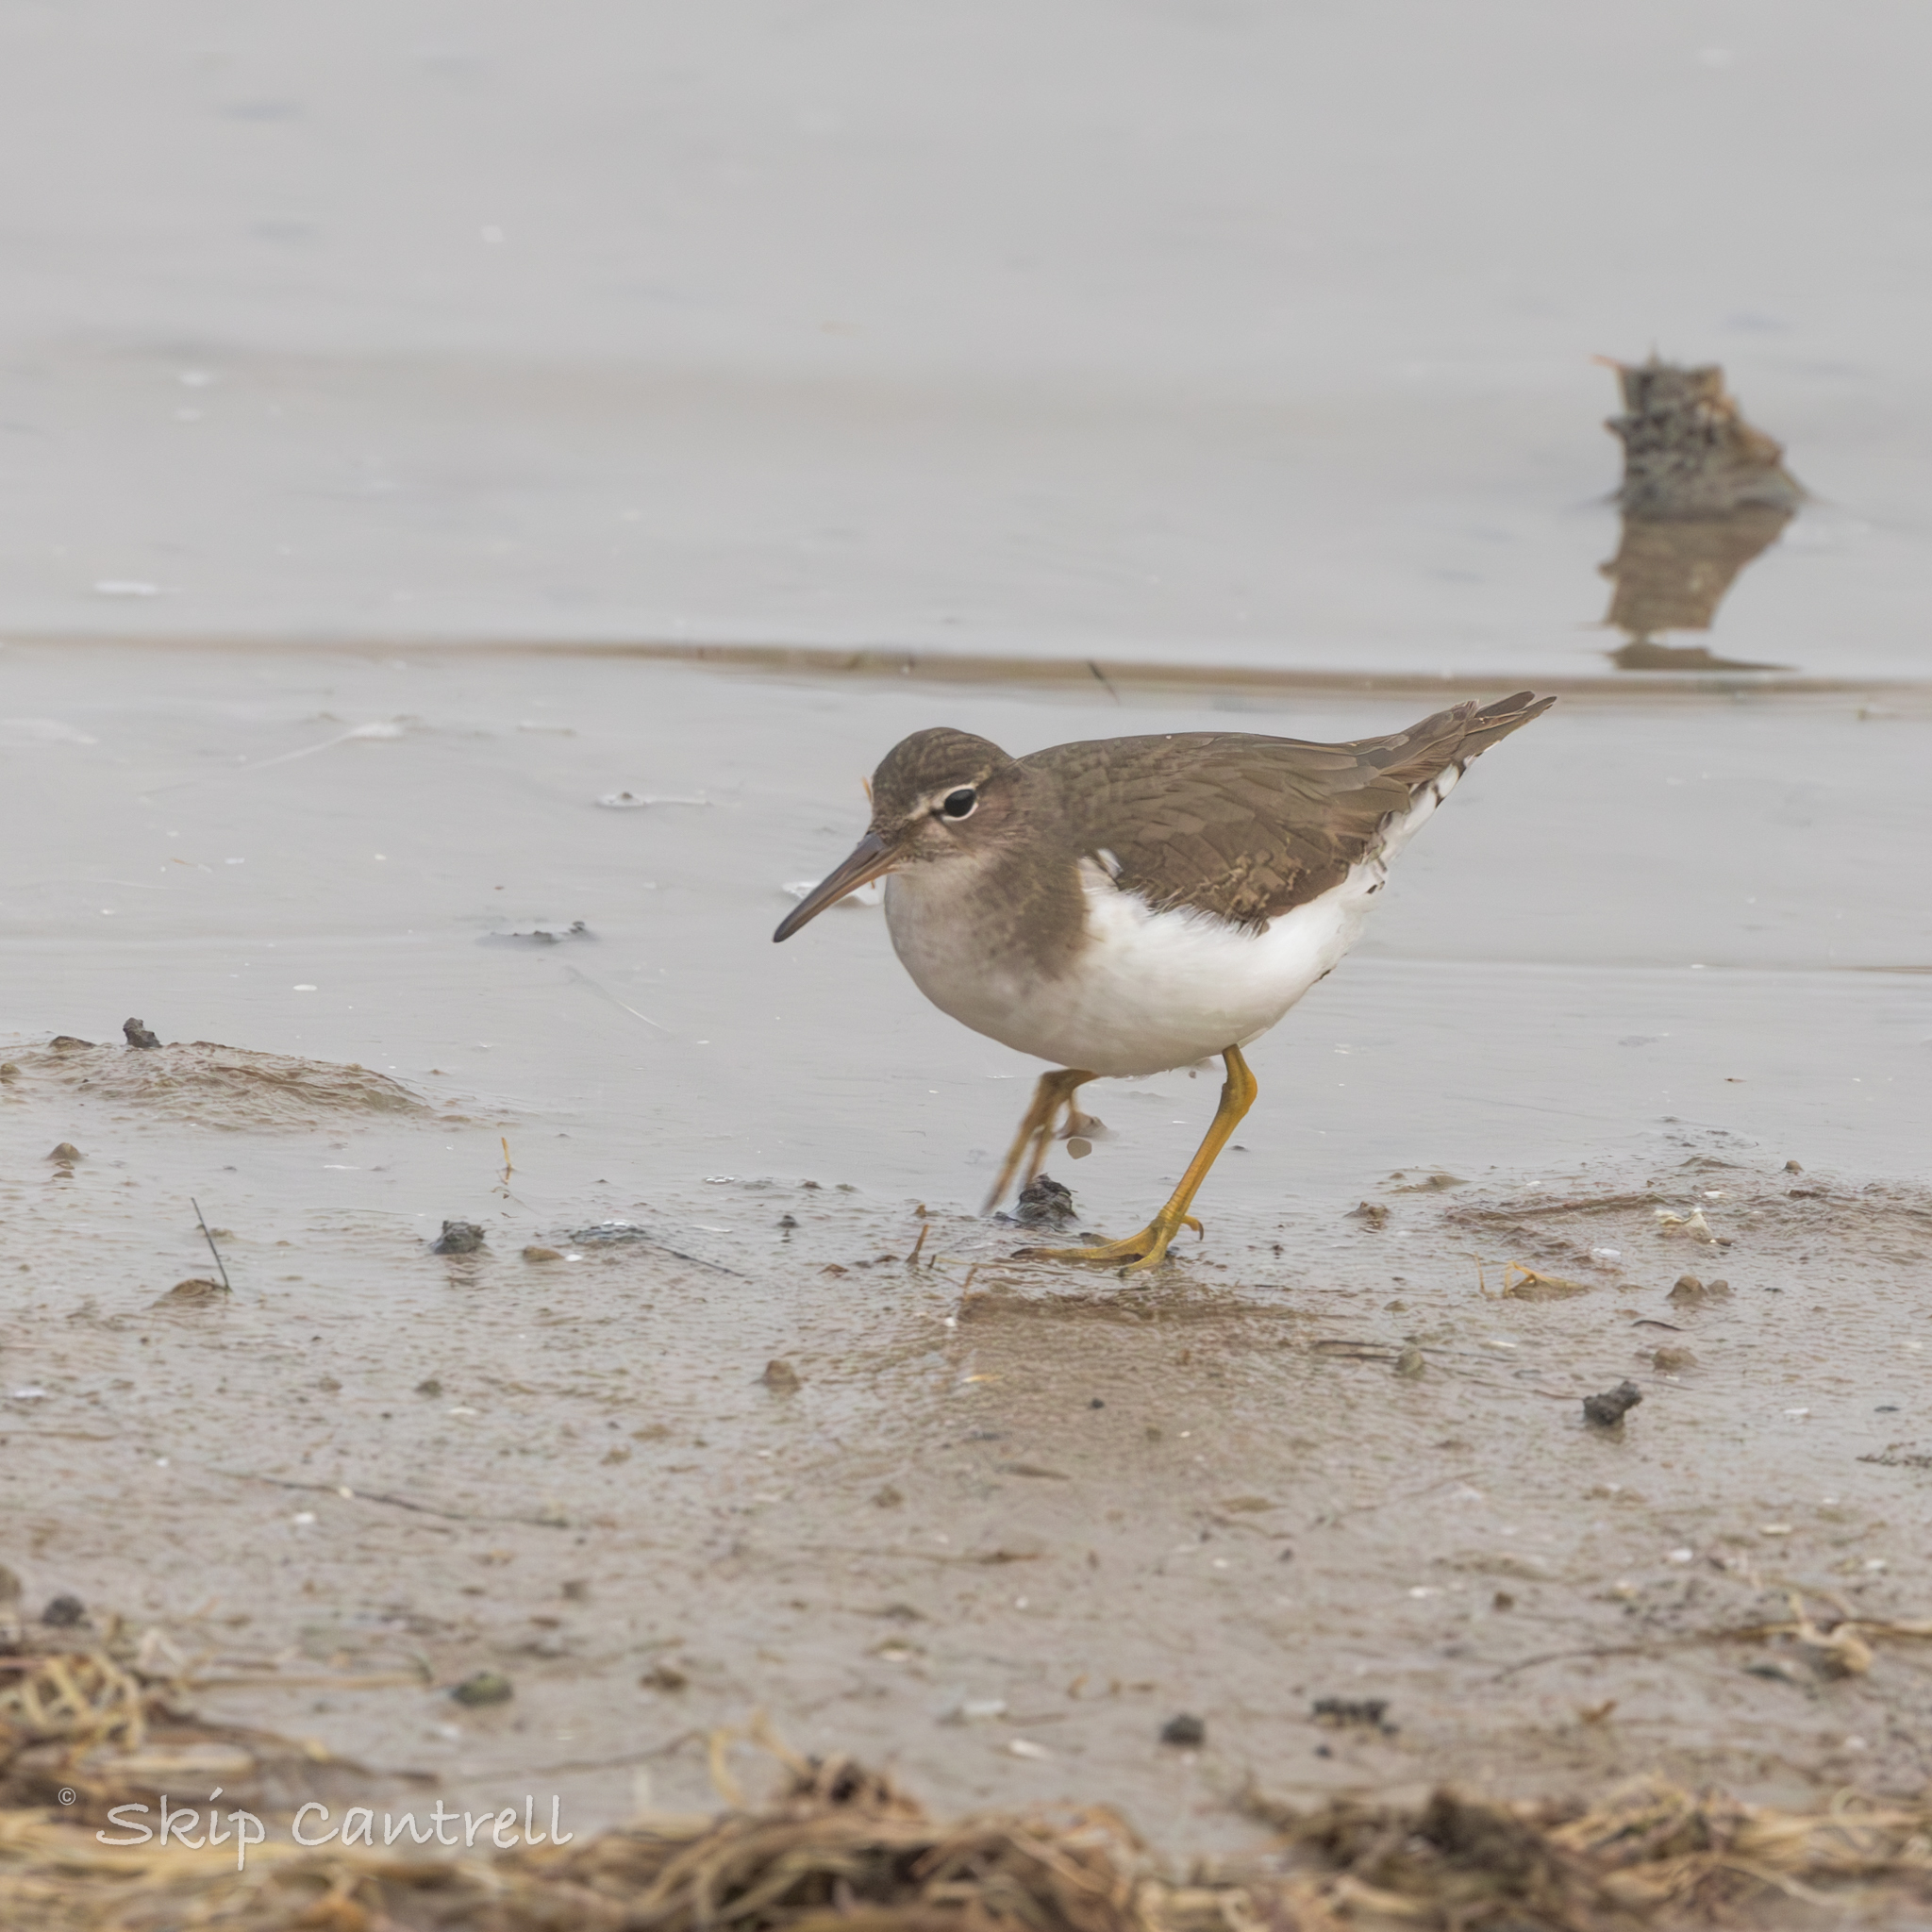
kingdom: Animalia
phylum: Chordata
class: Aves
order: Charadriiformes
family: Scolopacidae
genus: Actitis
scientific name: Actitis macularius
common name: Spotted sandpiper
